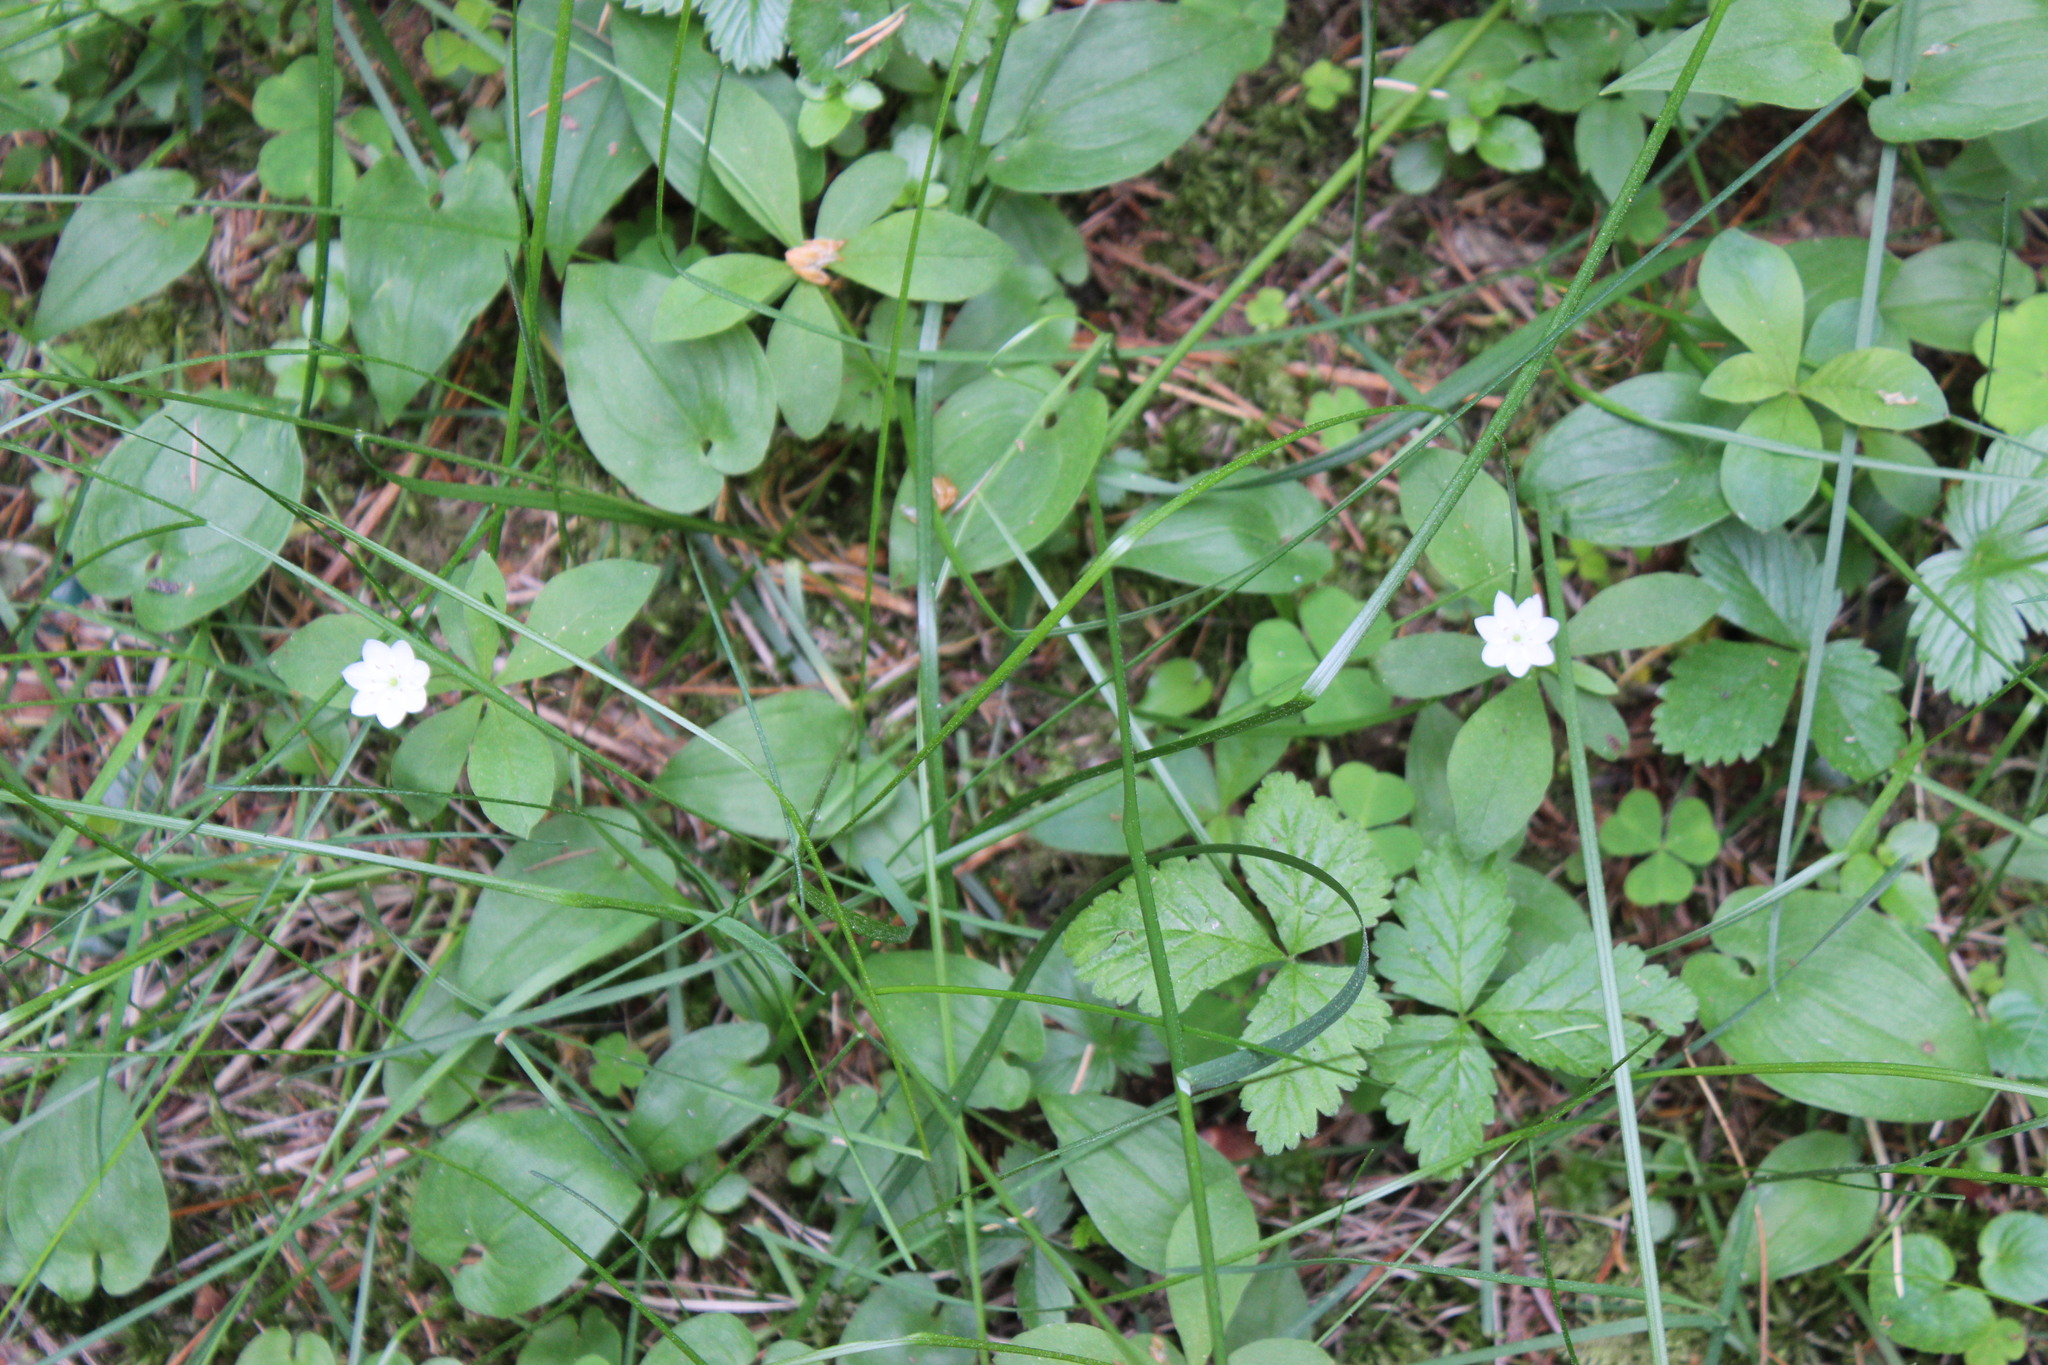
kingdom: Plantae
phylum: Tracheophyta
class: Magnoliopsida
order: Ericales
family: Primulaceae
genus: Lysimachia
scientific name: Lysimachia europaea
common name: Arctic starflower
